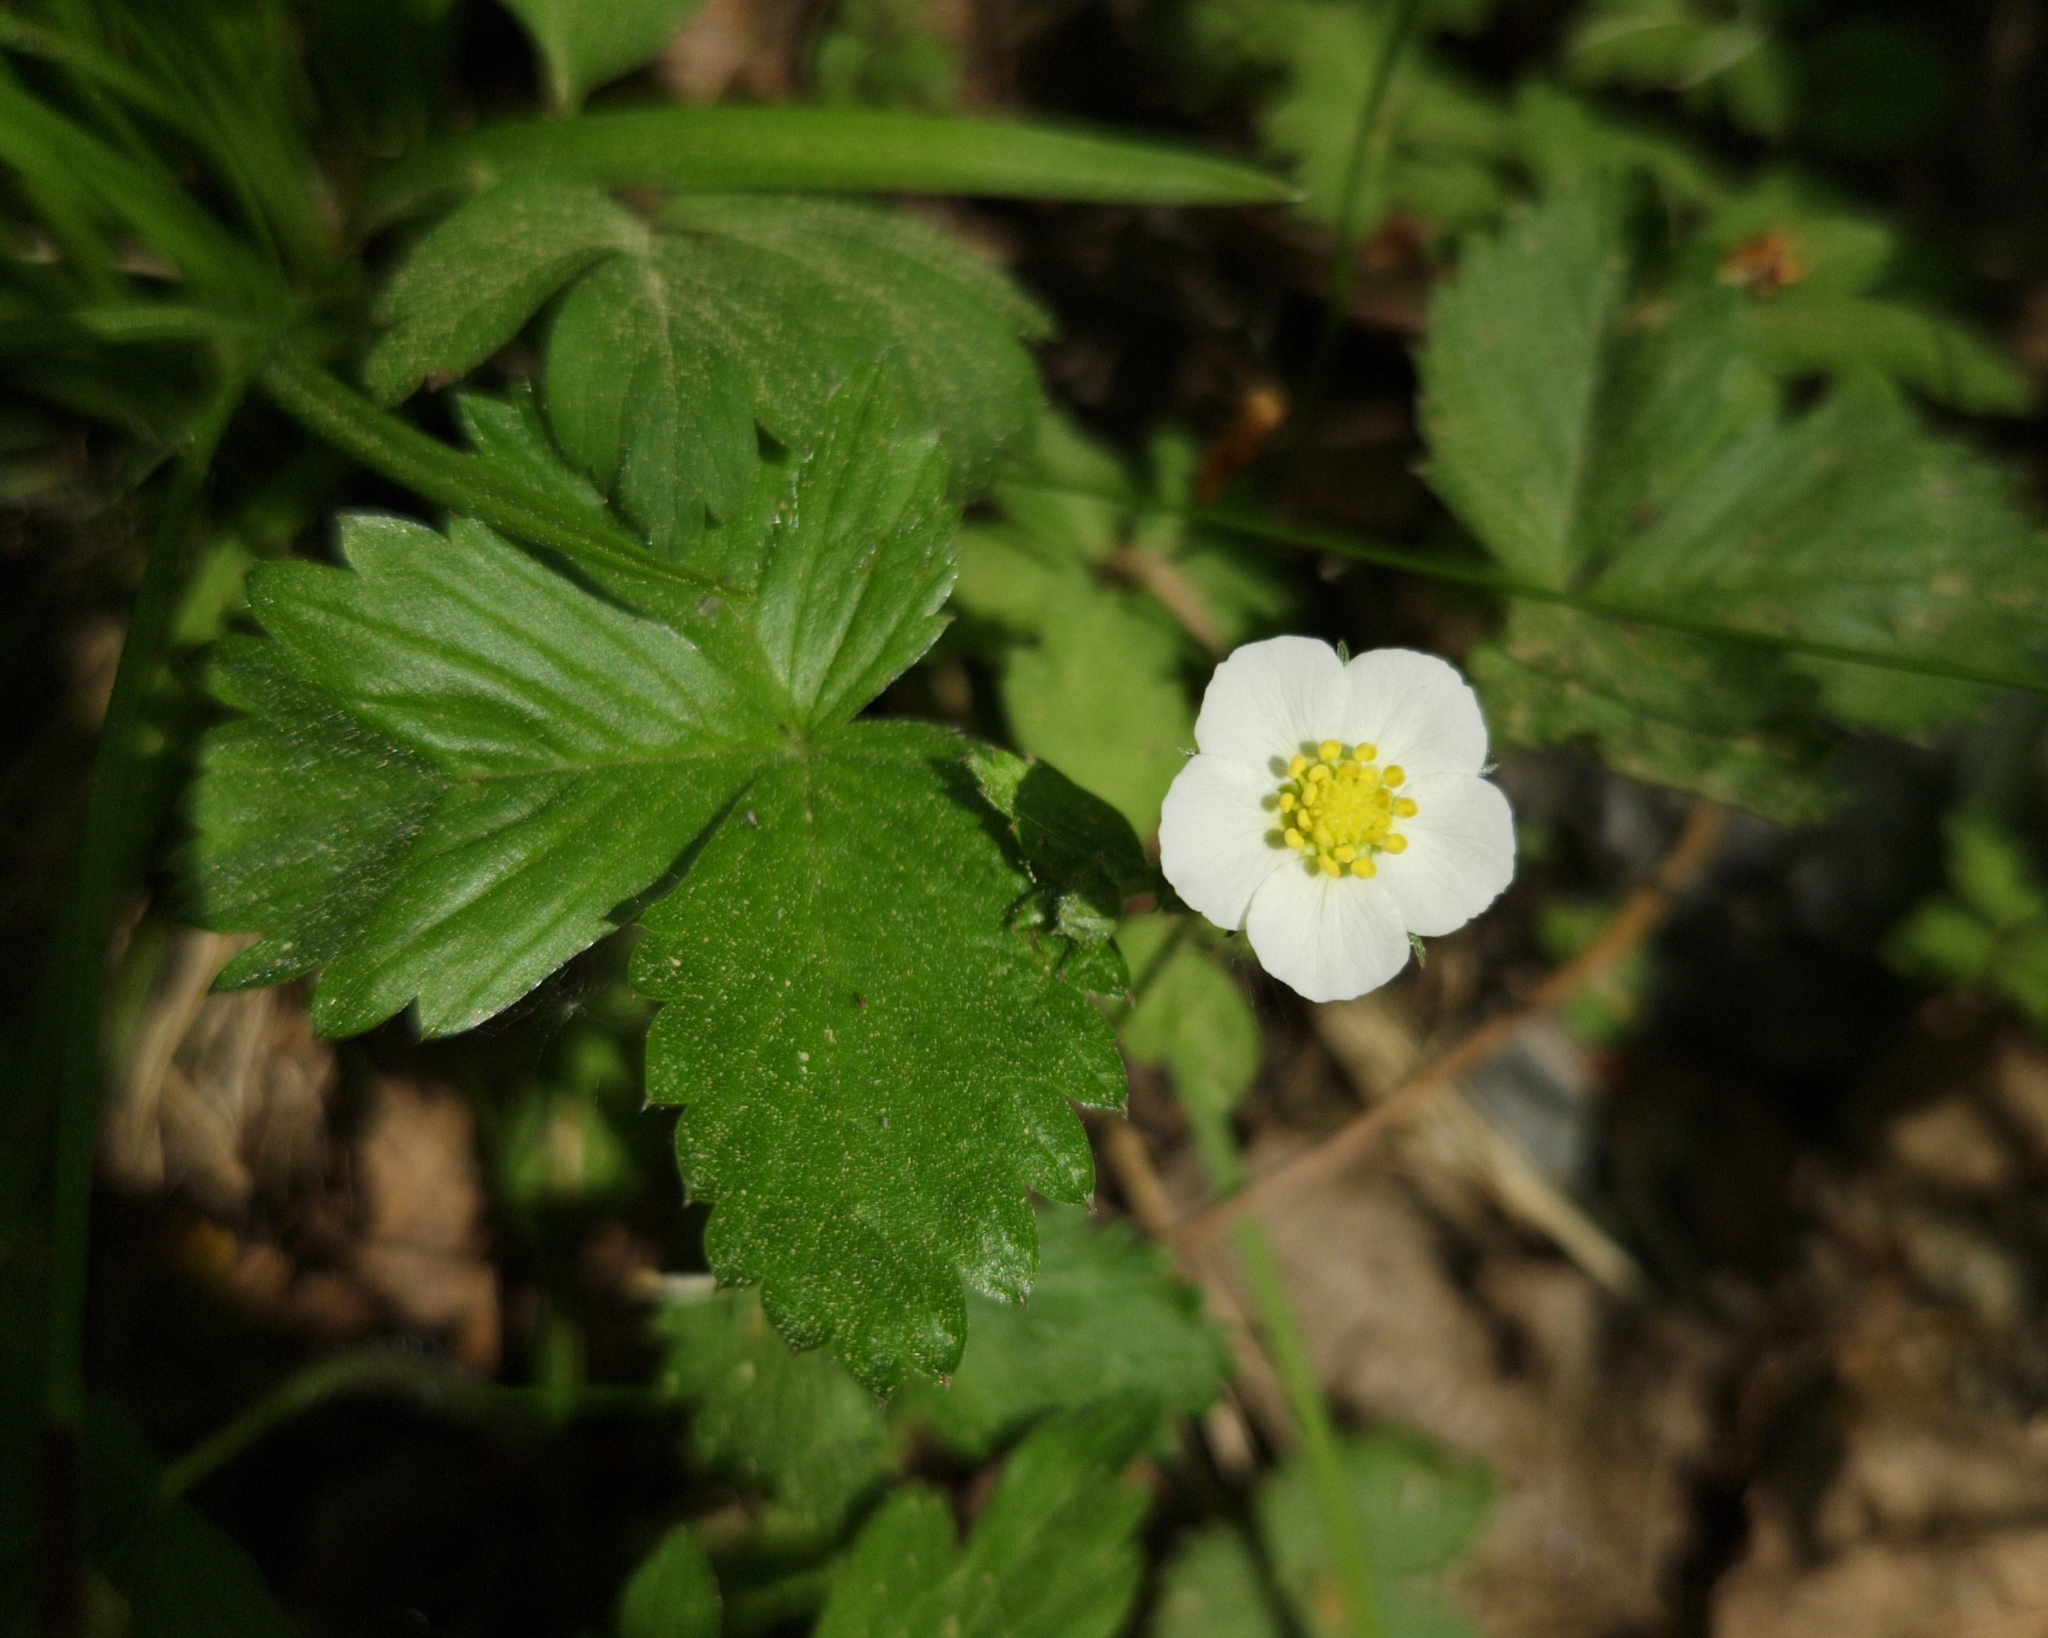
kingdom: Plantae
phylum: Tracheophyta
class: Magnoliopsida
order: Rosales
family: Rosaceae
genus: Fragaria
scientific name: Fragaria vesca
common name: Wild strawberry
